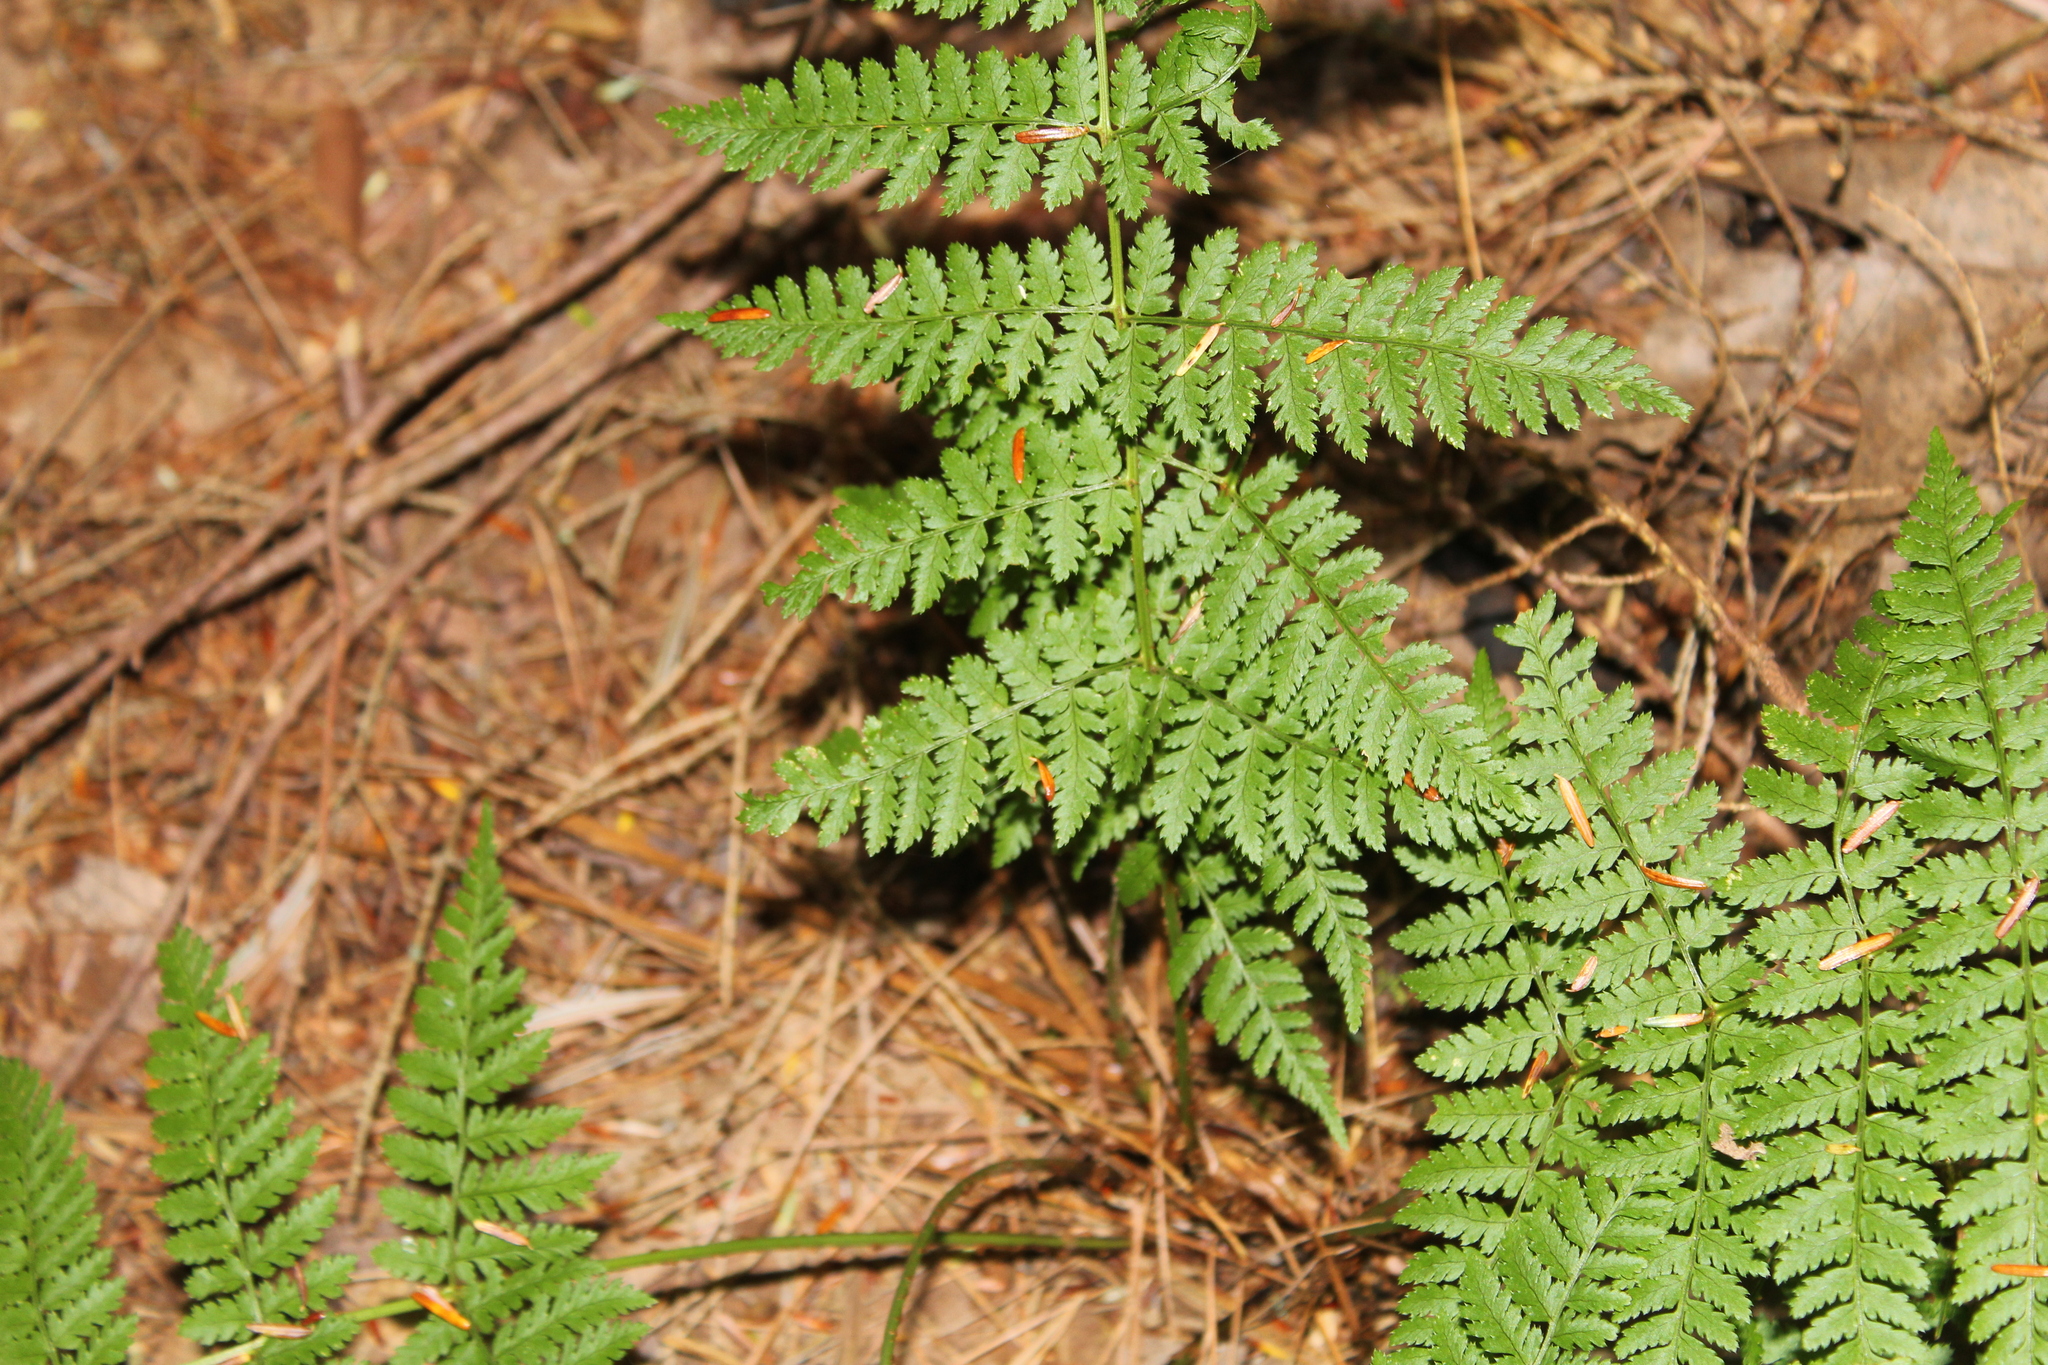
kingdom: Plantae
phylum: Tracheophyta
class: Polypodiopsida
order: Polypodiales
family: Dryopteridaceae
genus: Dryopteris
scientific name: Dryopteris intermedia
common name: Evergreen wood fern
